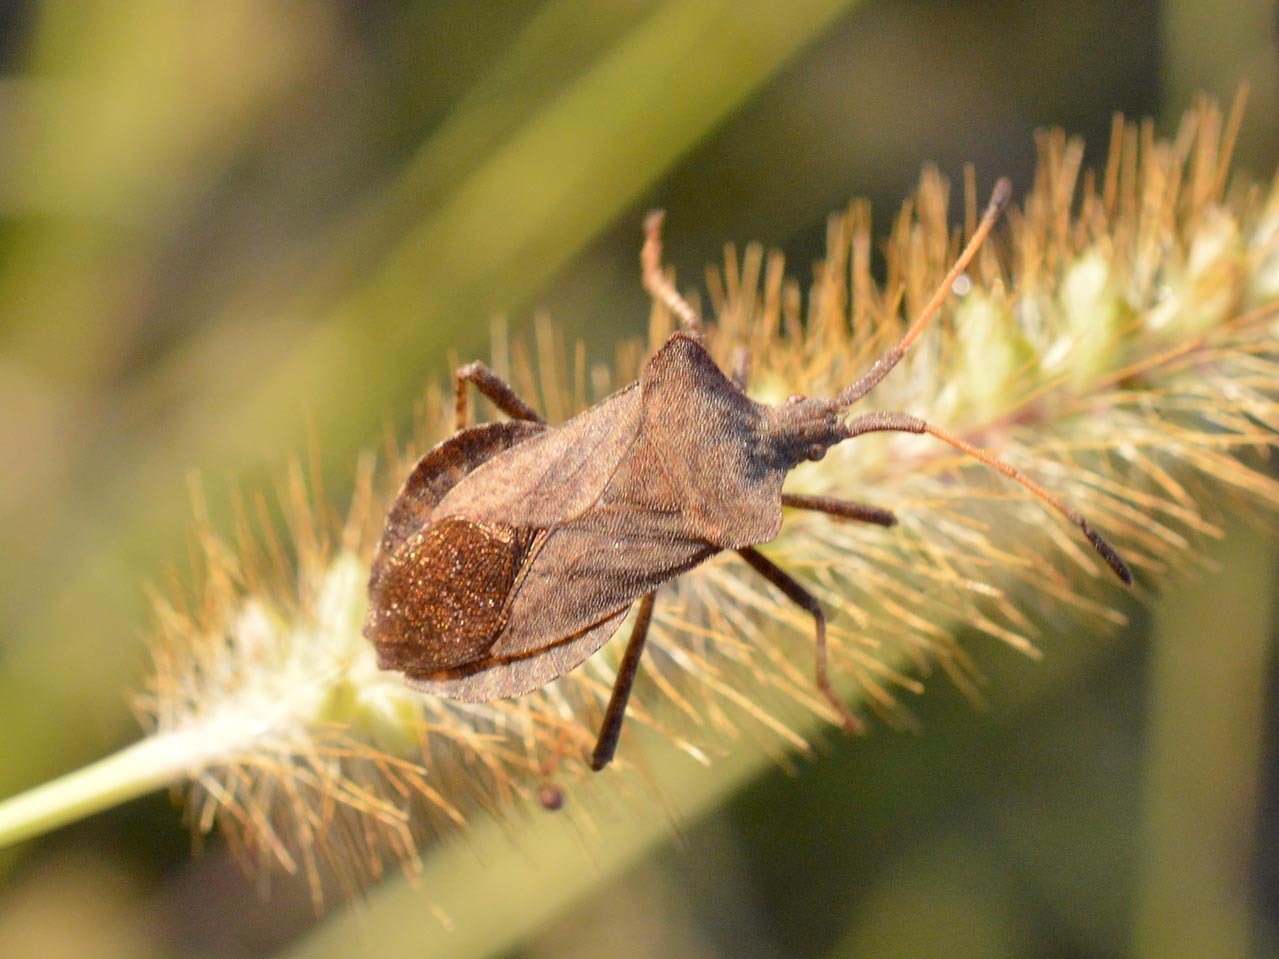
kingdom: Animalia
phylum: Arthropoda
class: Insecta
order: Hemiptera
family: Coreidae
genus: Coreus
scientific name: Coreus marginatus
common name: Dock bug
